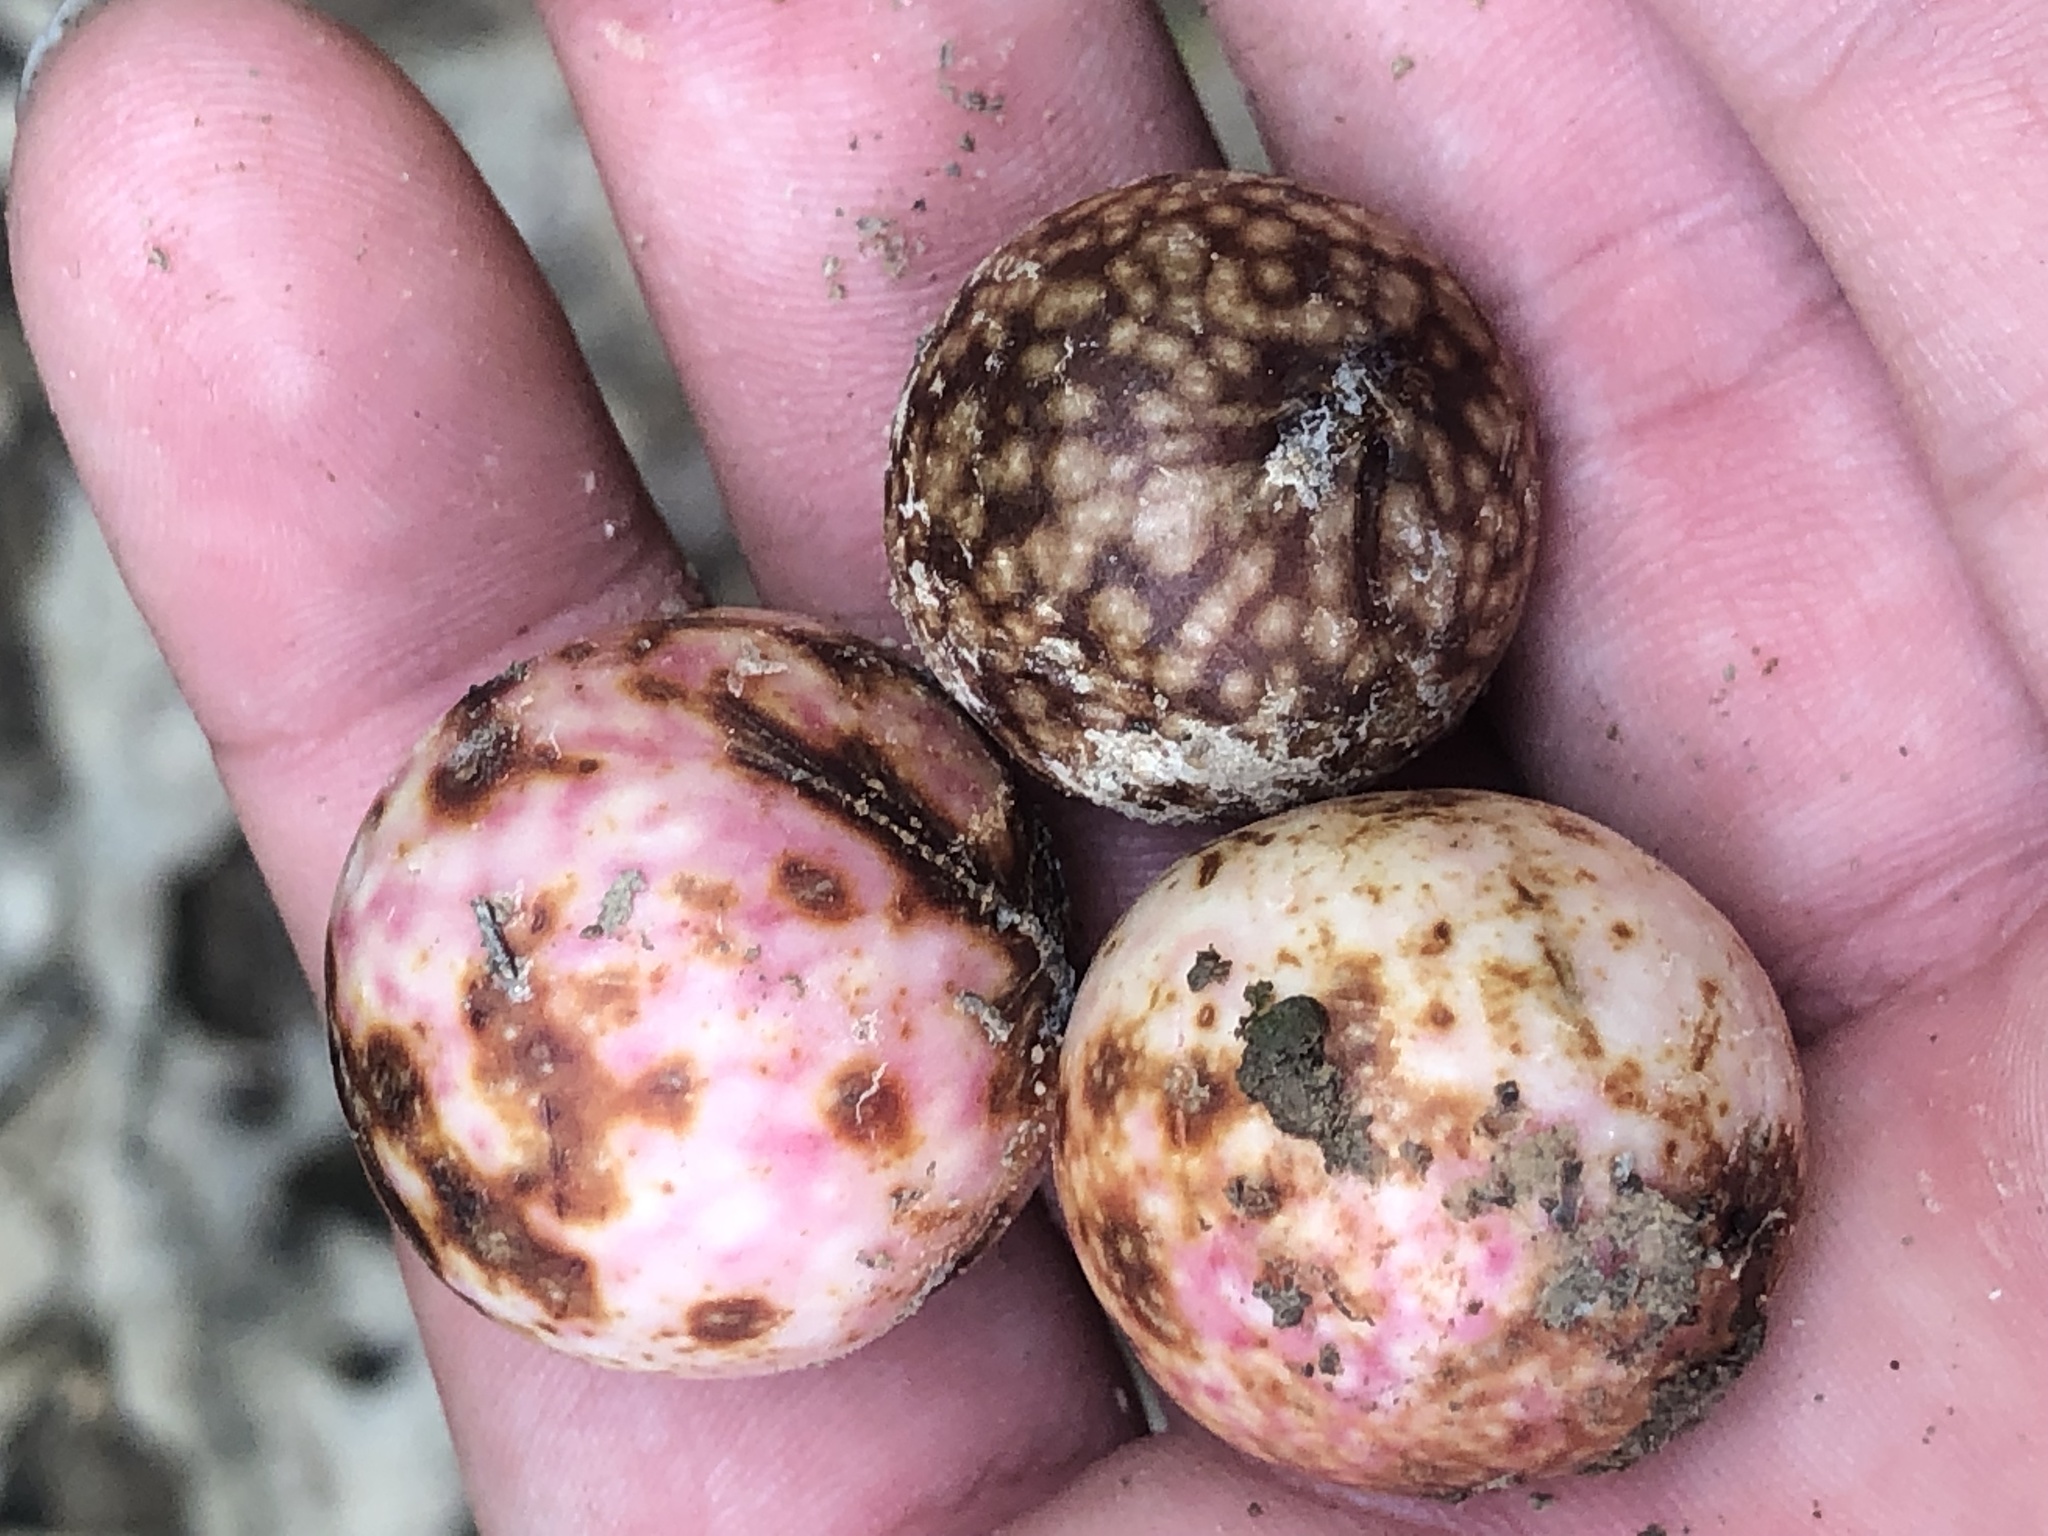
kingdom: Animalia
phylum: Arthropoda
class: Insecta
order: Hymenoptera
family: Cynipidae
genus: Amphibolips
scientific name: Amphibolips
